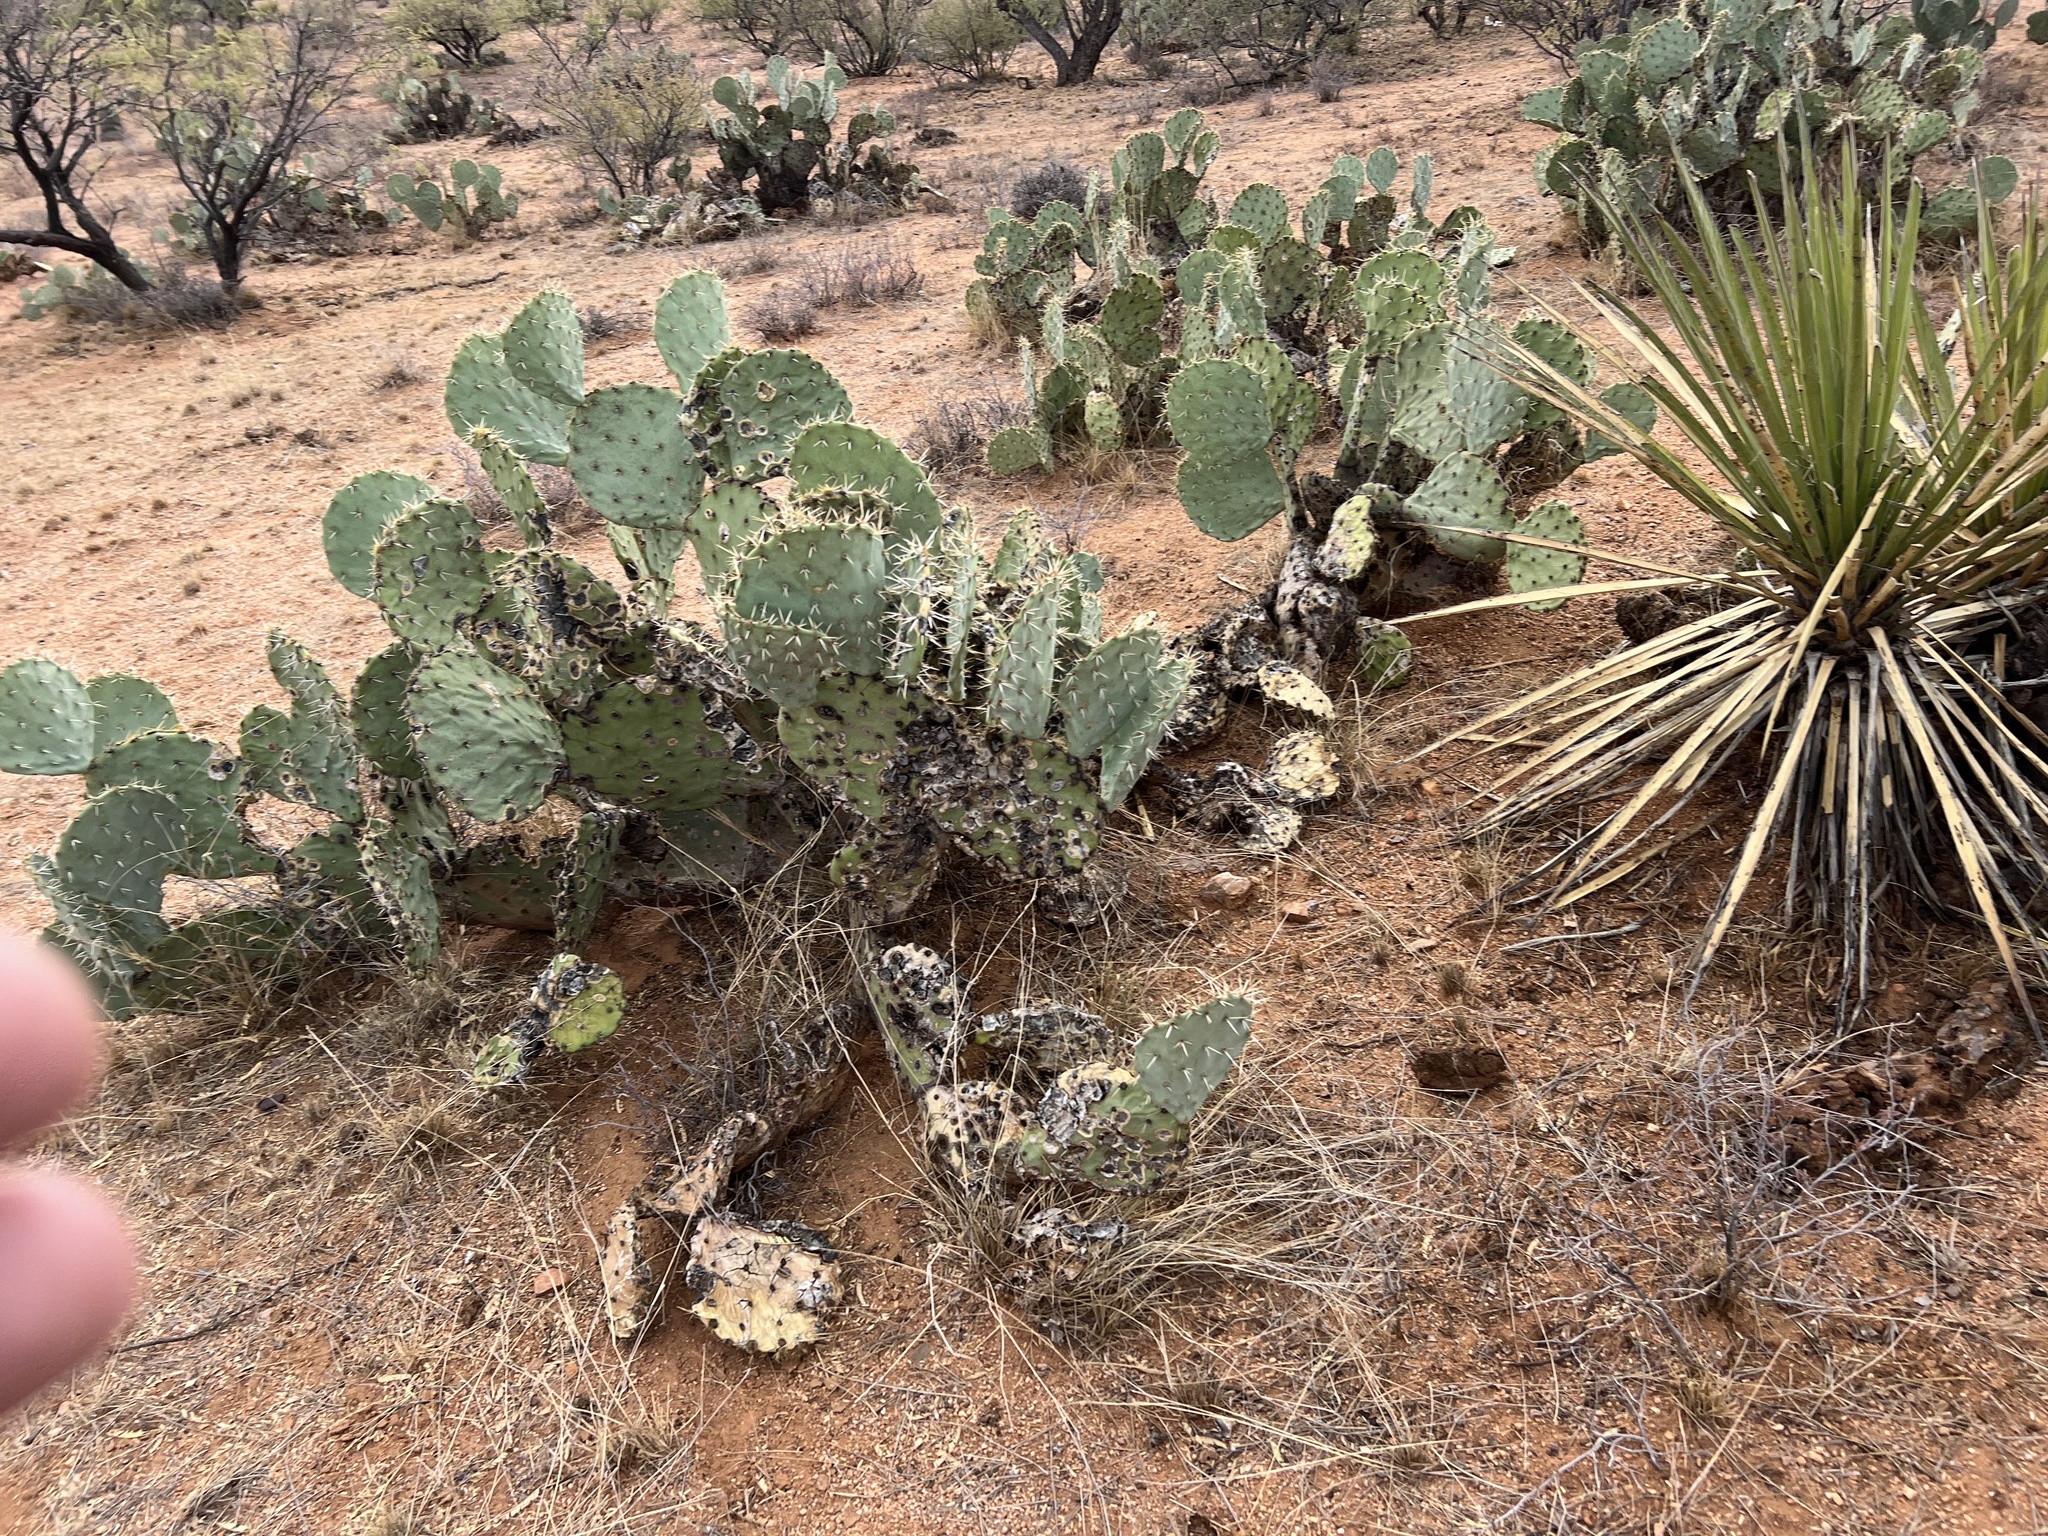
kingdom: Plantae
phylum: Tracheophyta
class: Magnoliopsida
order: Caryophyllales
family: Cactaceae
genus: Opuntia
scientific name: Opuntia engelmannii
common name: Cactus-apple
